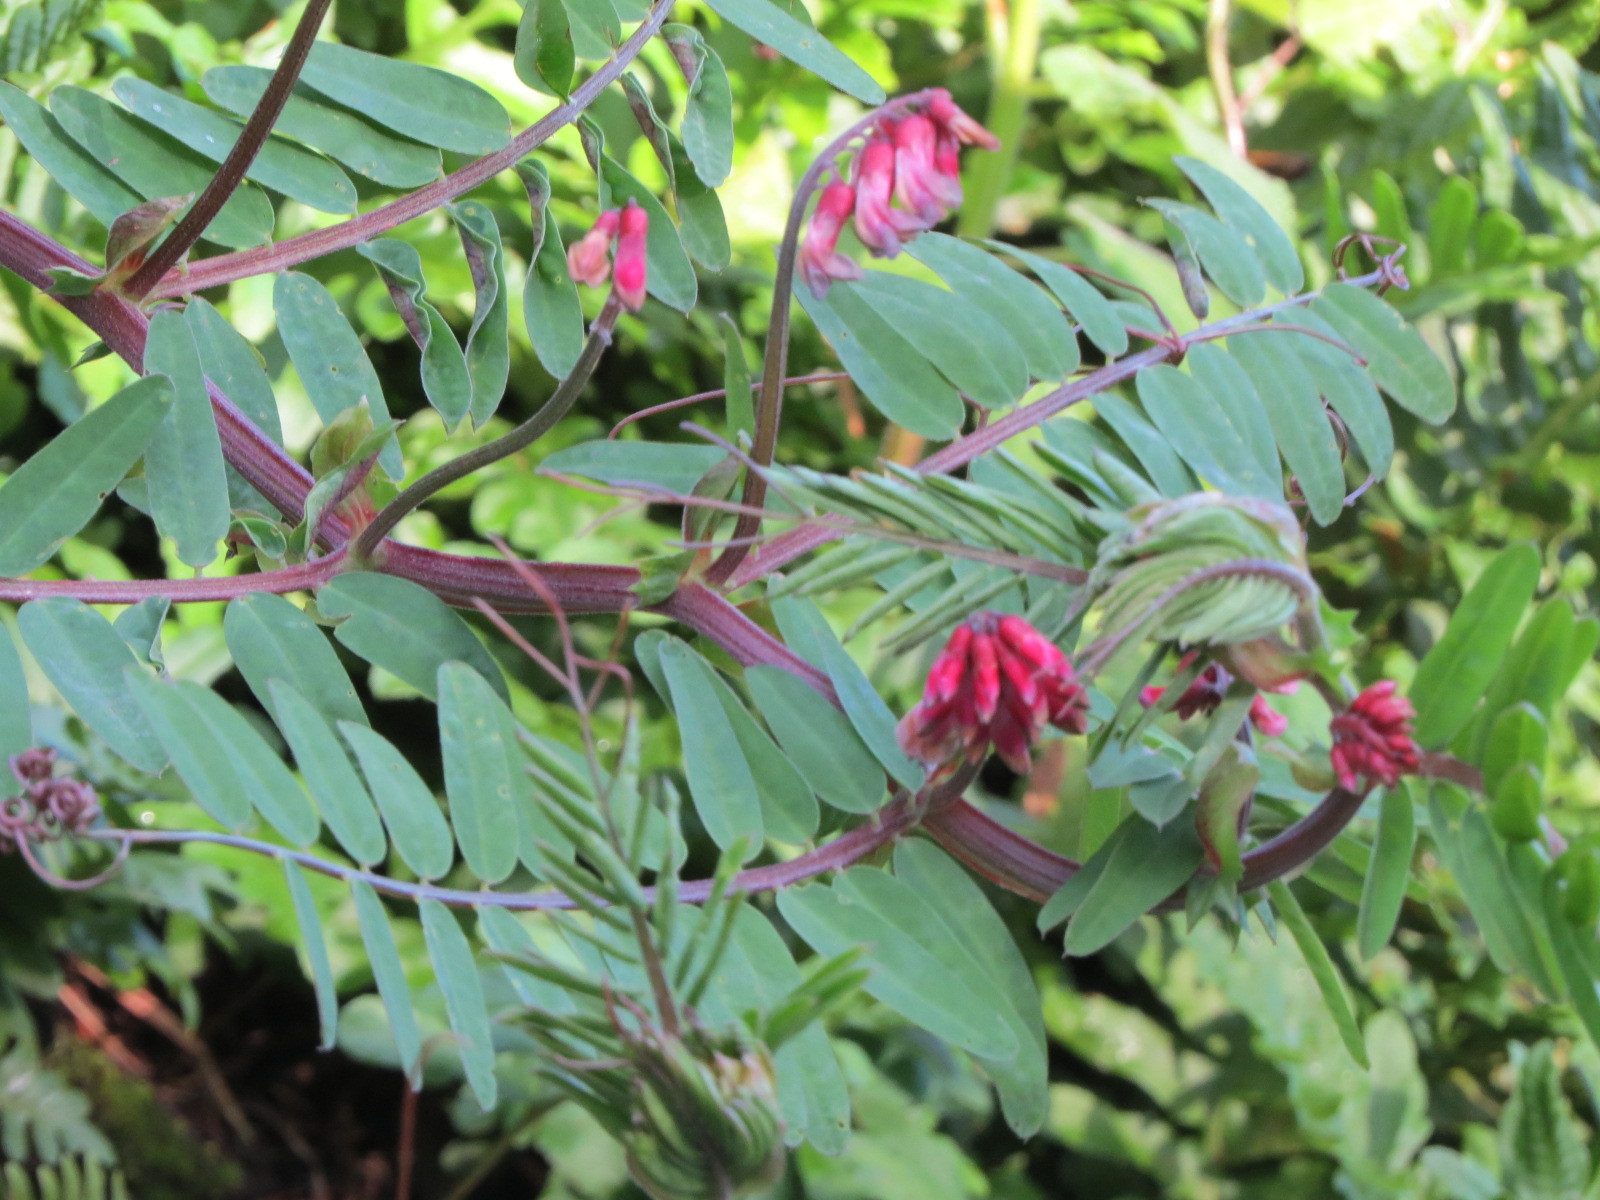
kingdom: Plantae
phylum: Tracheophyta
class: Magnoliopsida
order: Fabales
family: Fabaceae
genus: Vicia
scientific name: Vicia
